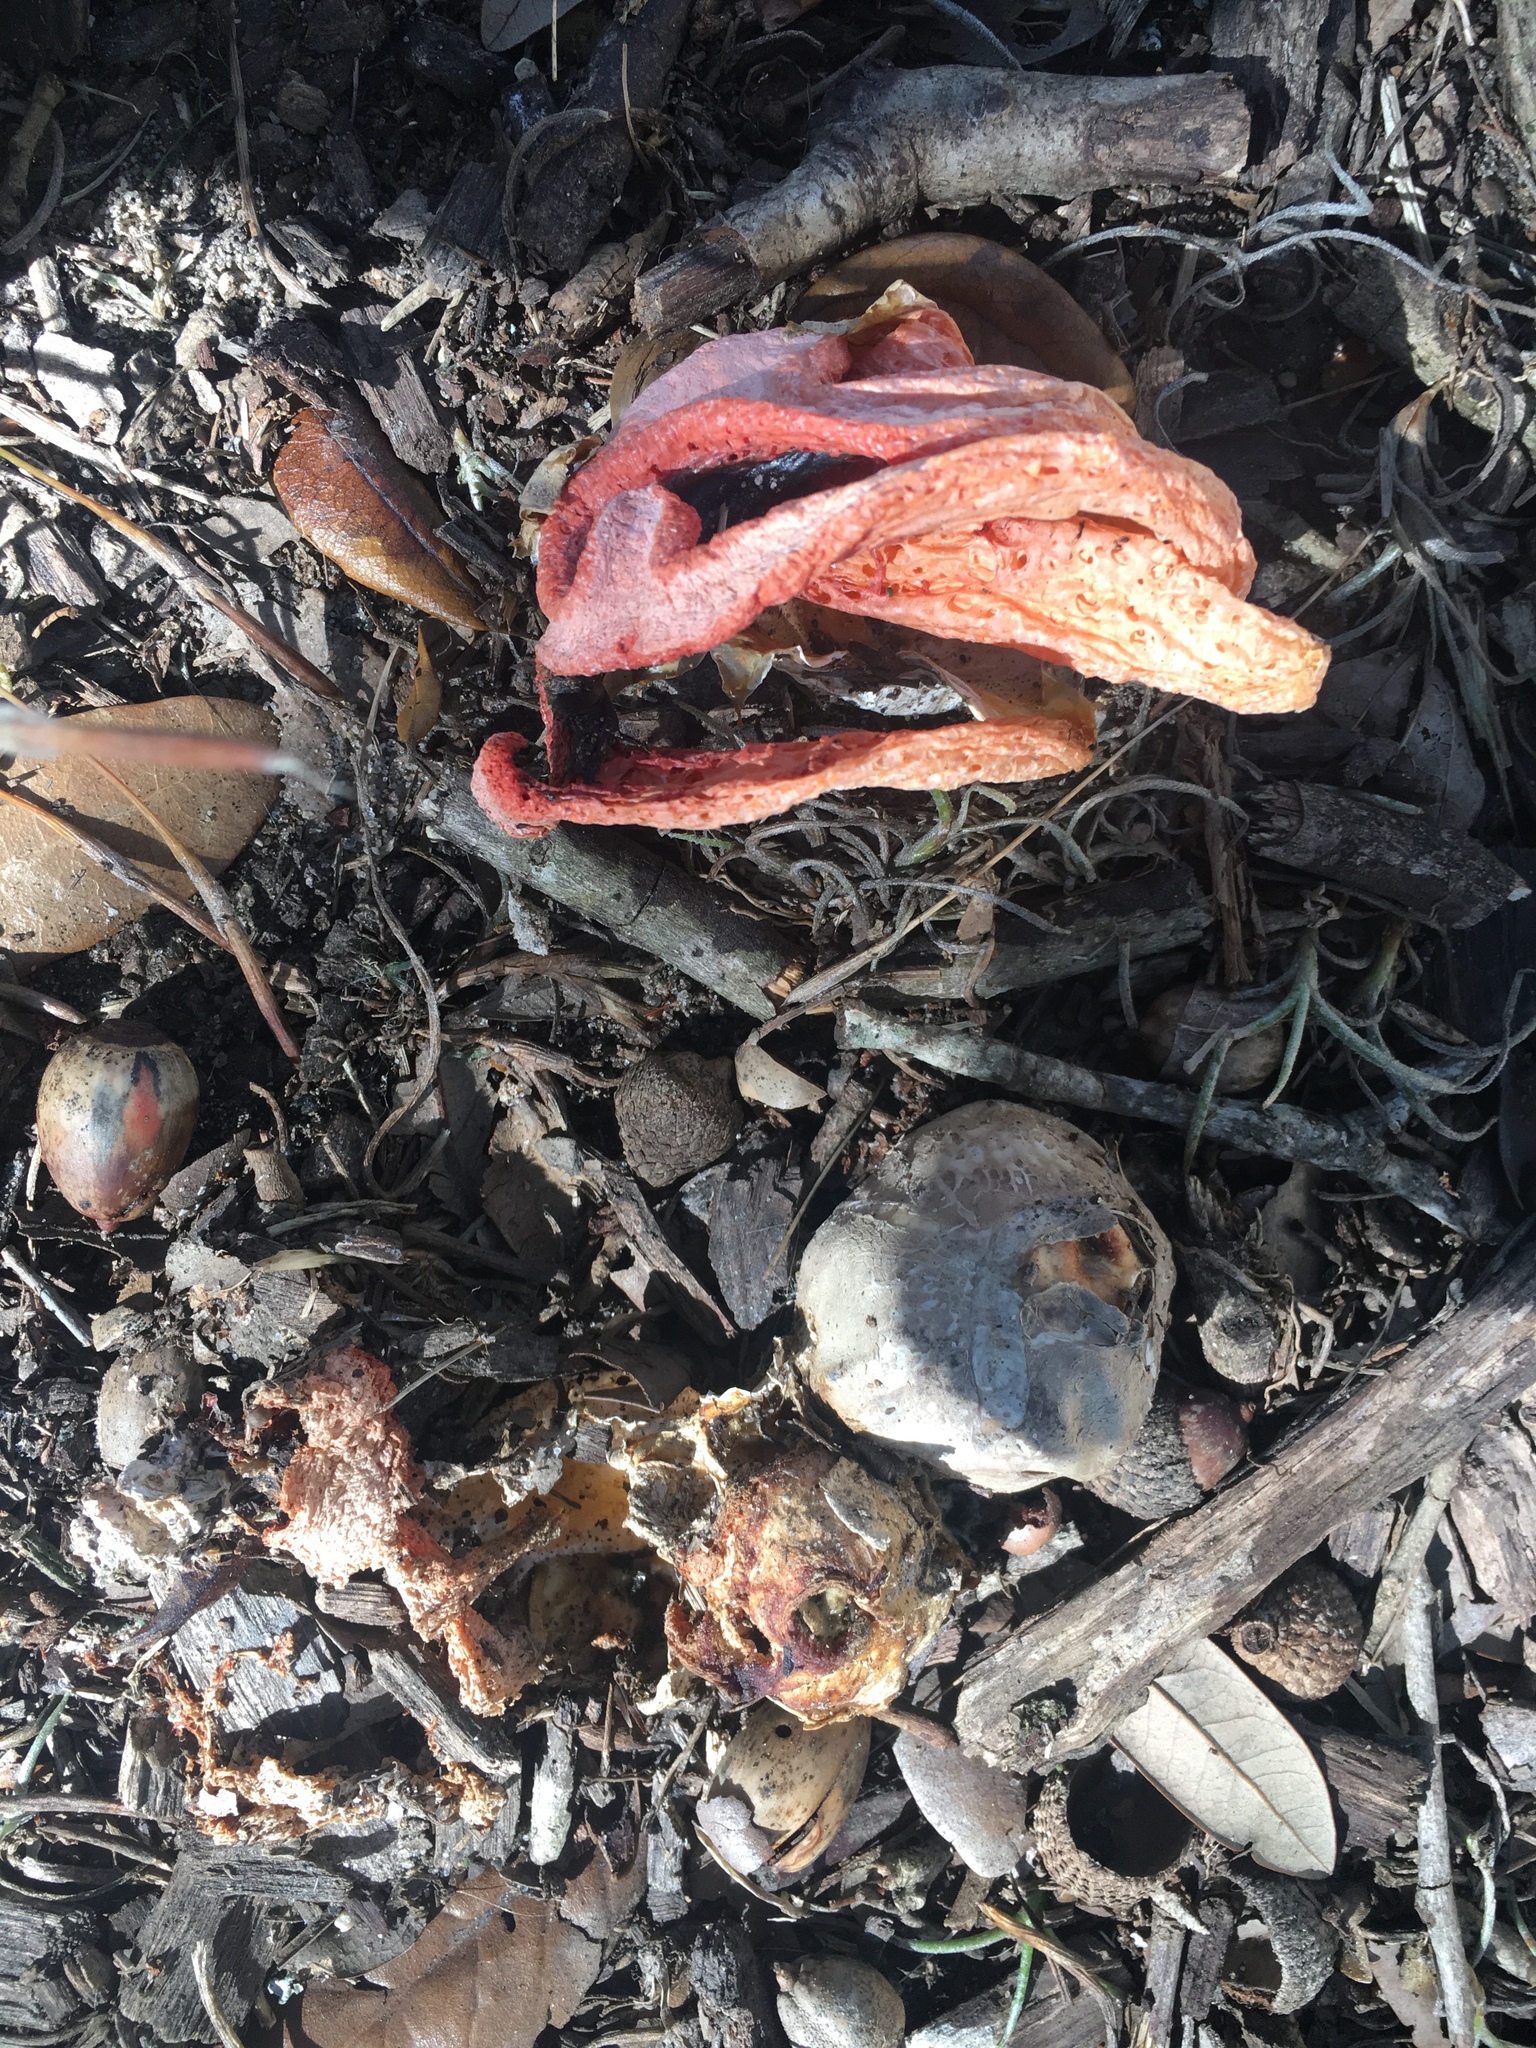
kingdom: Fungi
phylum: Basidiomycota
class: Agaricomycetes
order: Phallales
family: Phallaceae
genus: Clathrus
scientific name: Clathrus columnatus
